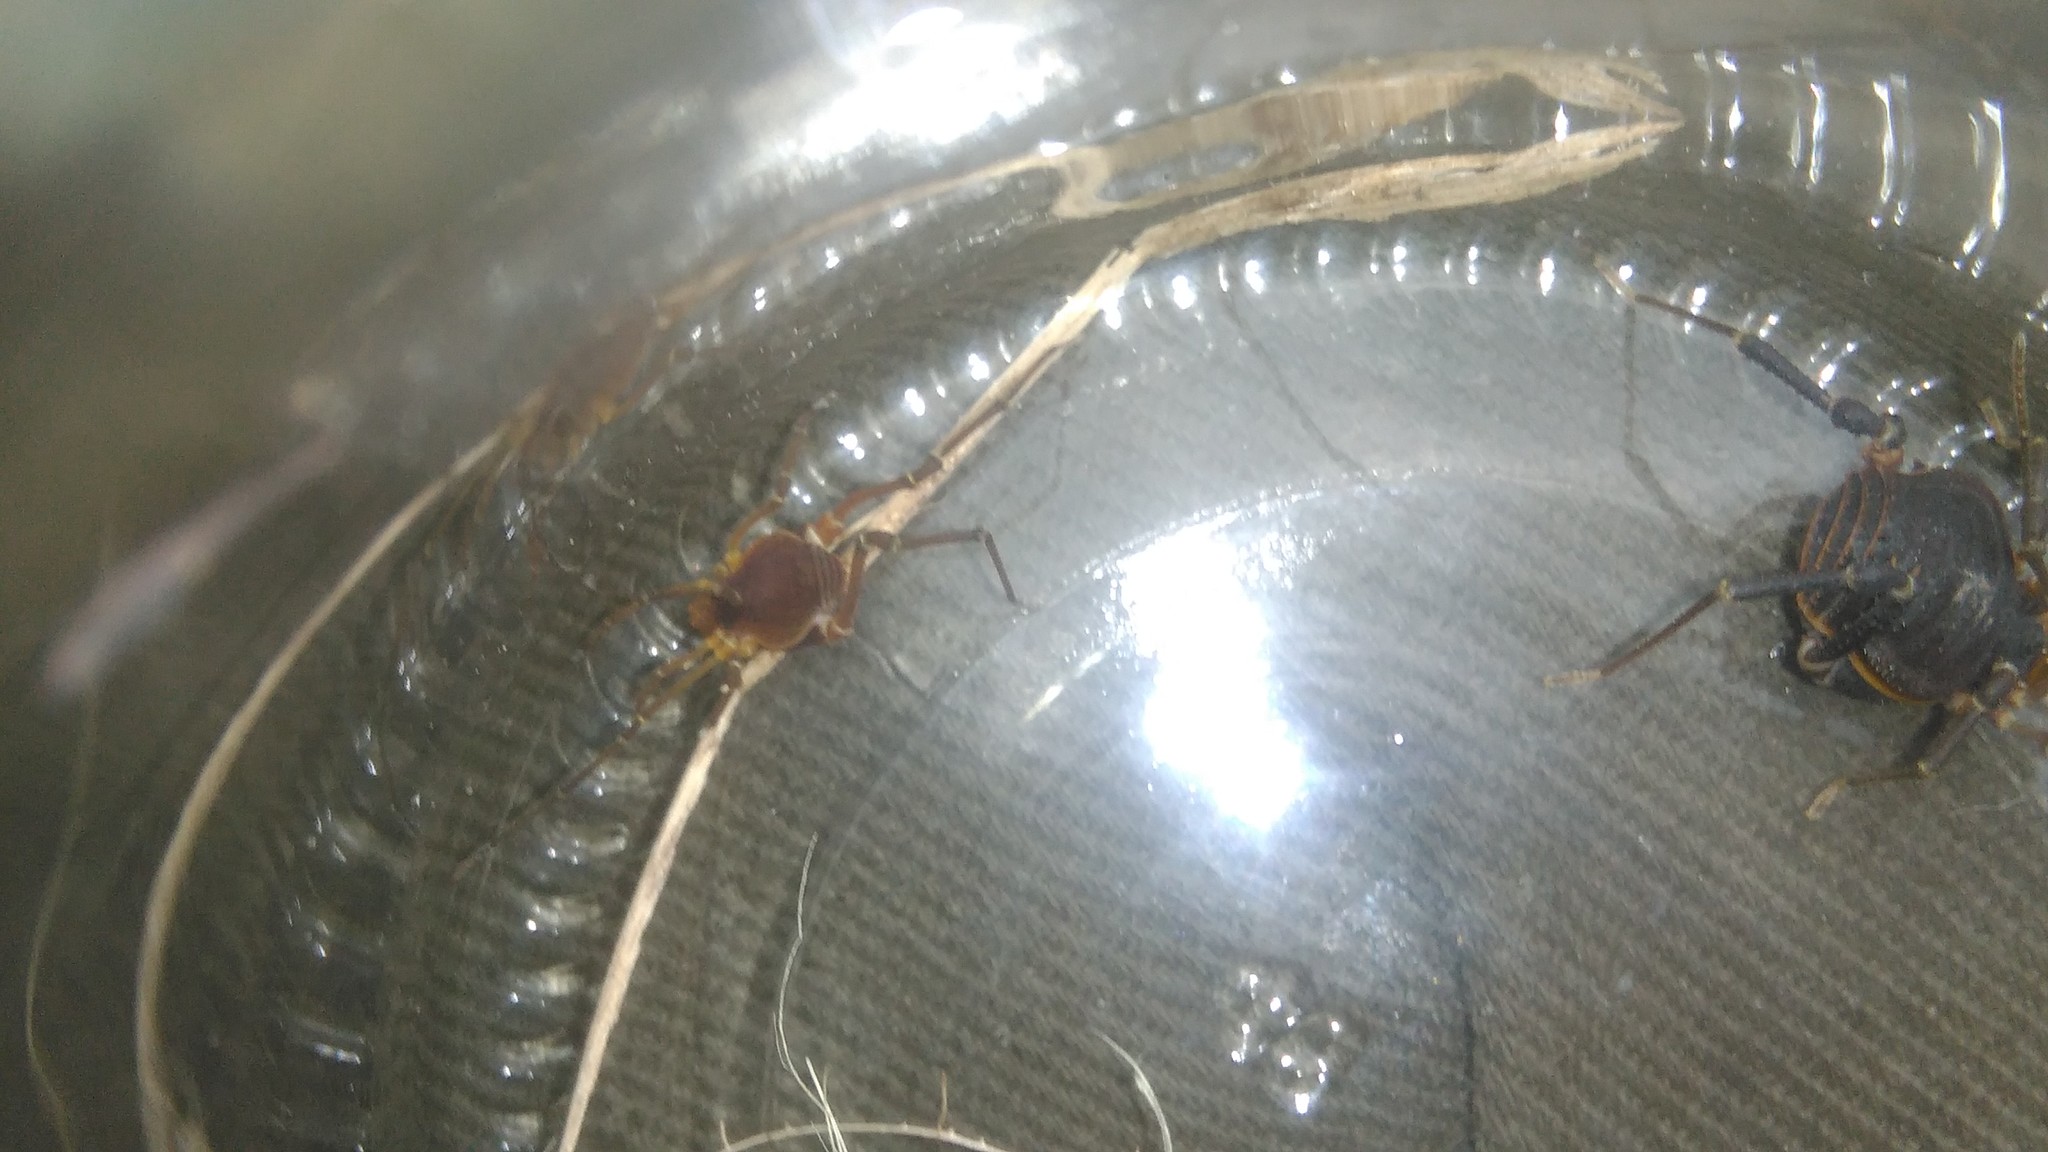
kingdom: Animalia
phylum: Arthropoda
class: Arachnida
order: Opiliones
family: Gonyleptidae
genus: Pachyloides
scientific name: Pachyloides thorellii
